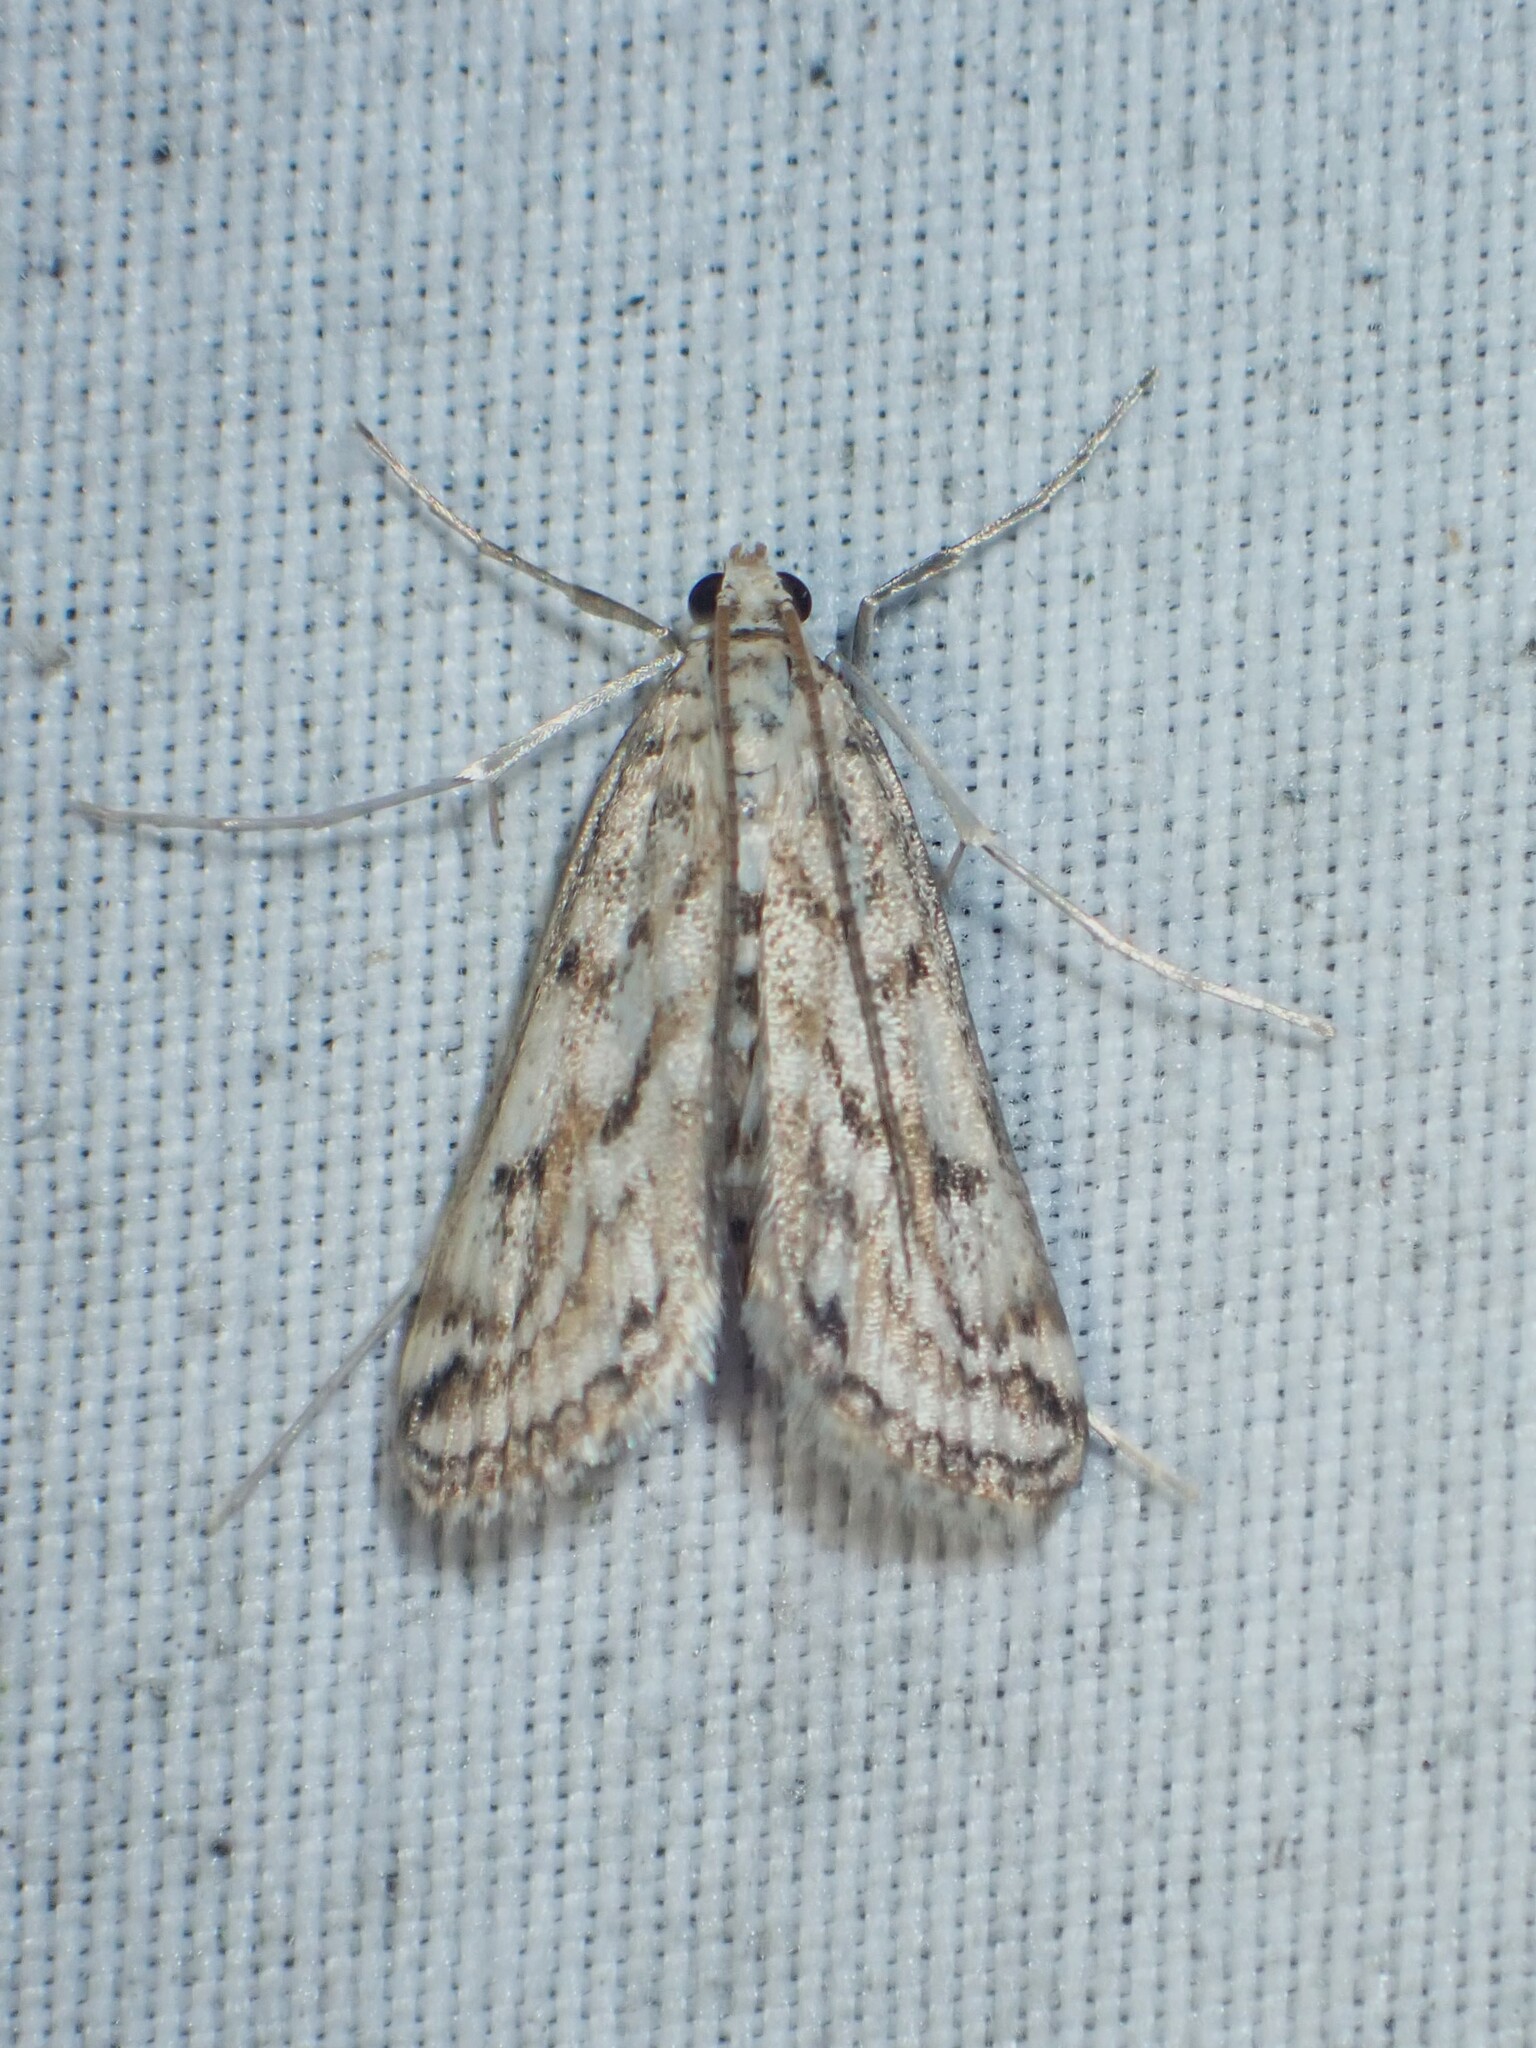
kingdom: Animalia
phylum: Arthropoda
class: Insecta
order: Lepidoptera
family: Crambidae
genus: Parapoynx
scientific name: Parapoynx allionealis
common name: Bladderwort casemaker
